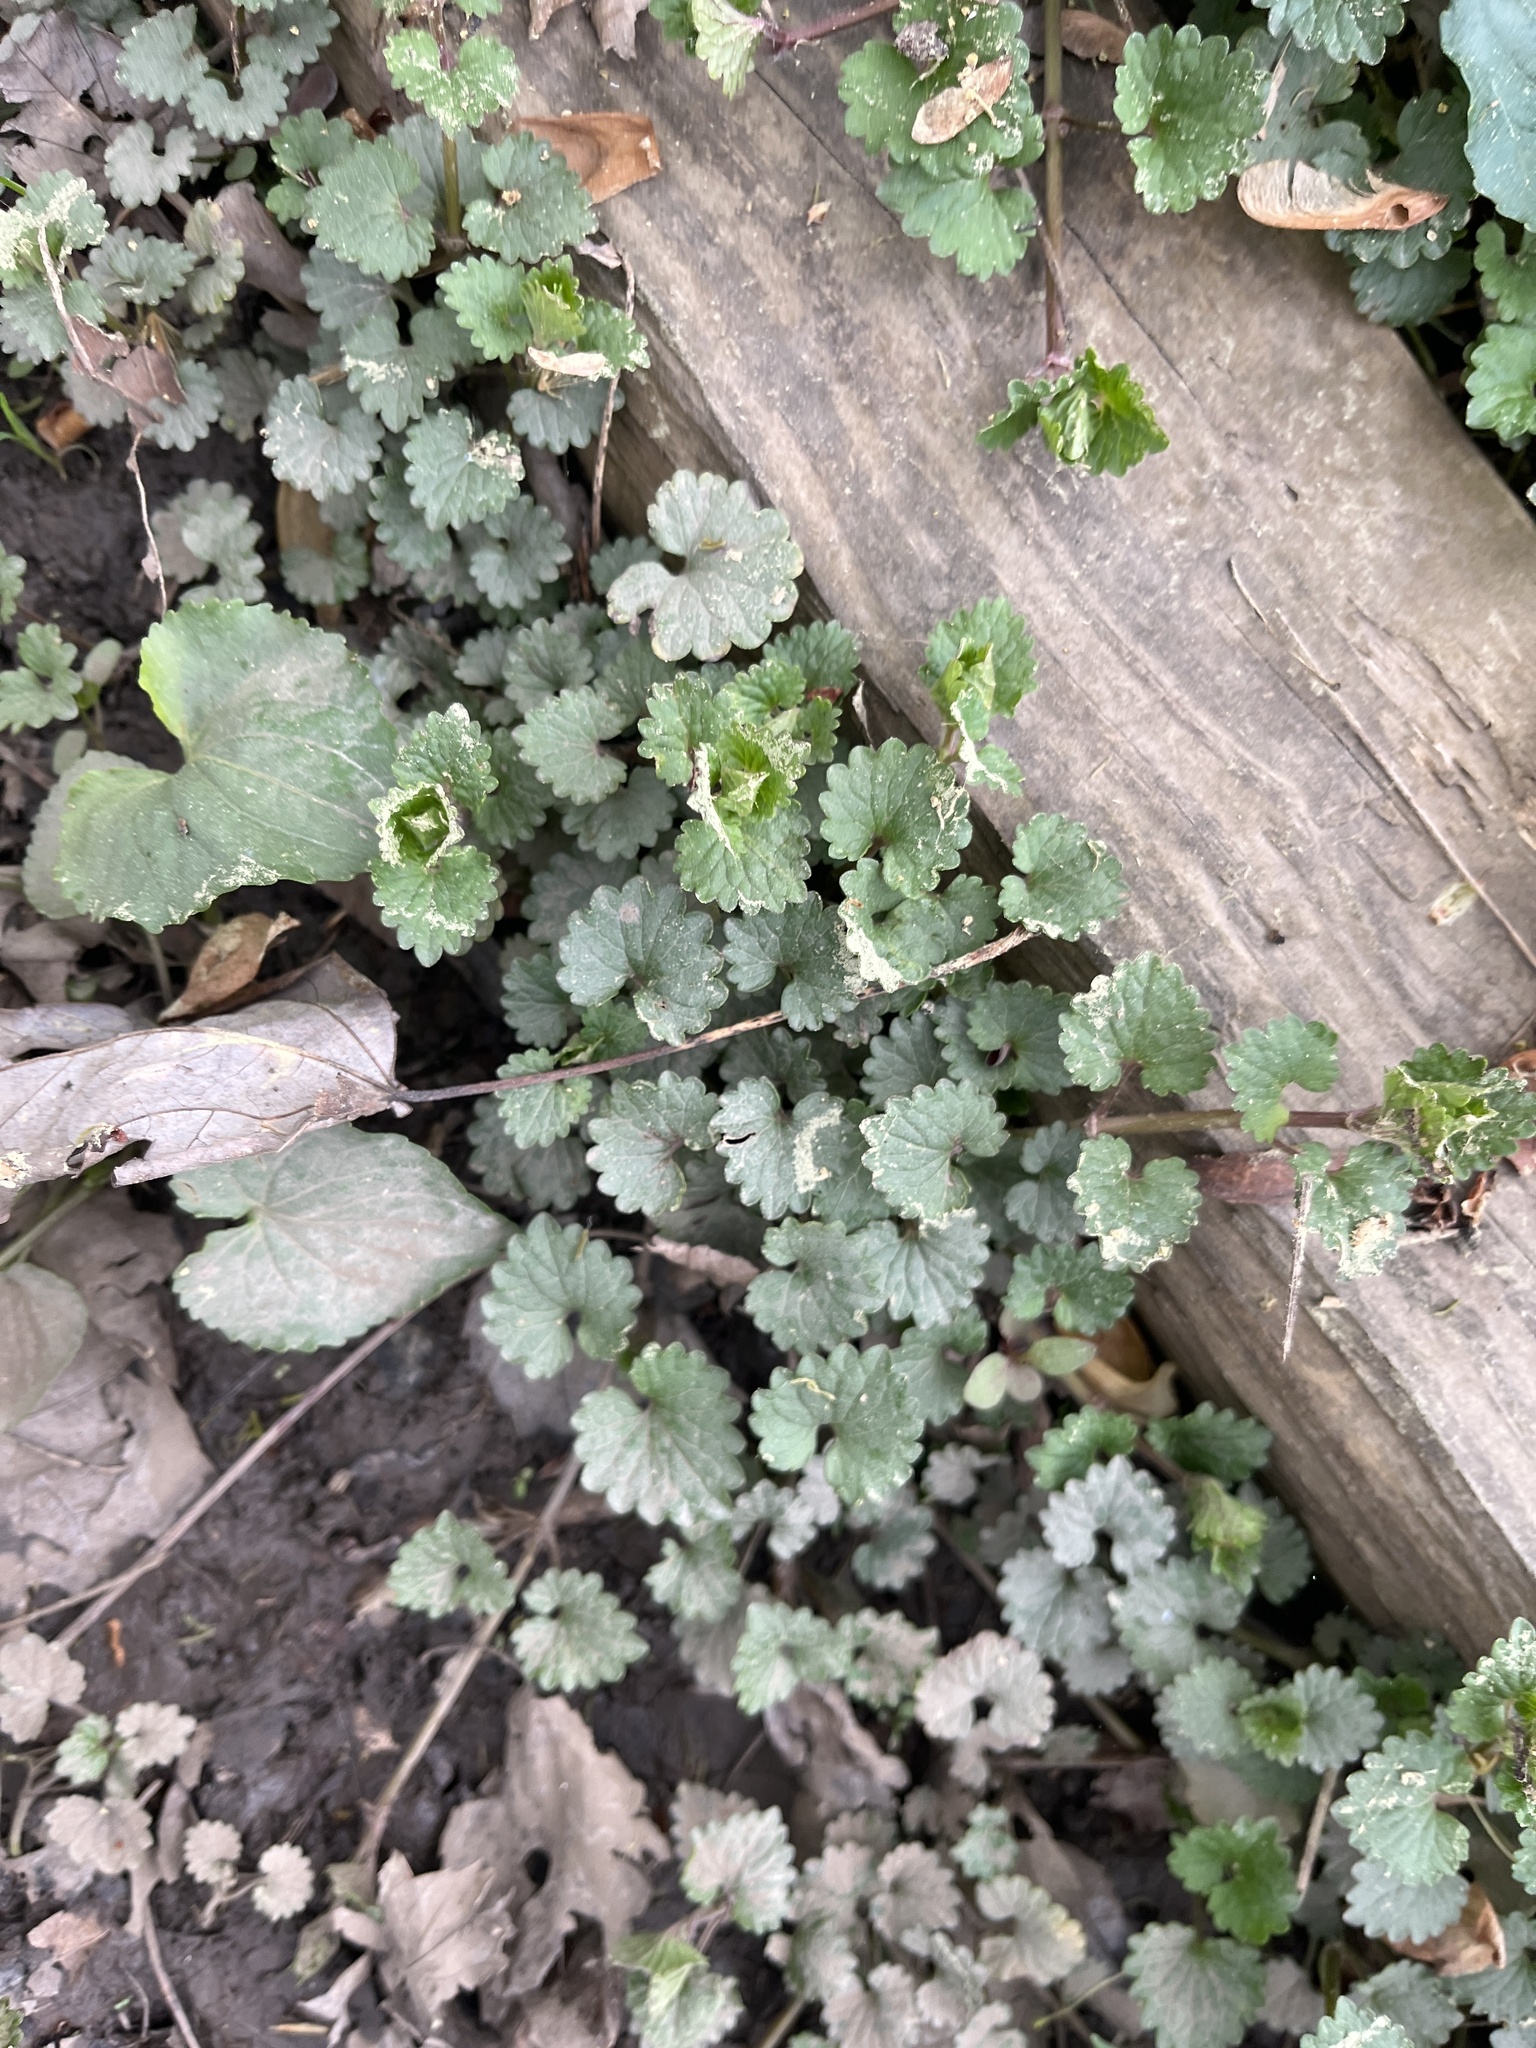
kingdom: Plantae
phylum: Tracheophyta
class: Magnoliopsida
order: Lamiales
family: Lamiaceae
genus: Glechoma
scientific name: Glechoma hederacea
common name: Ground ivy
